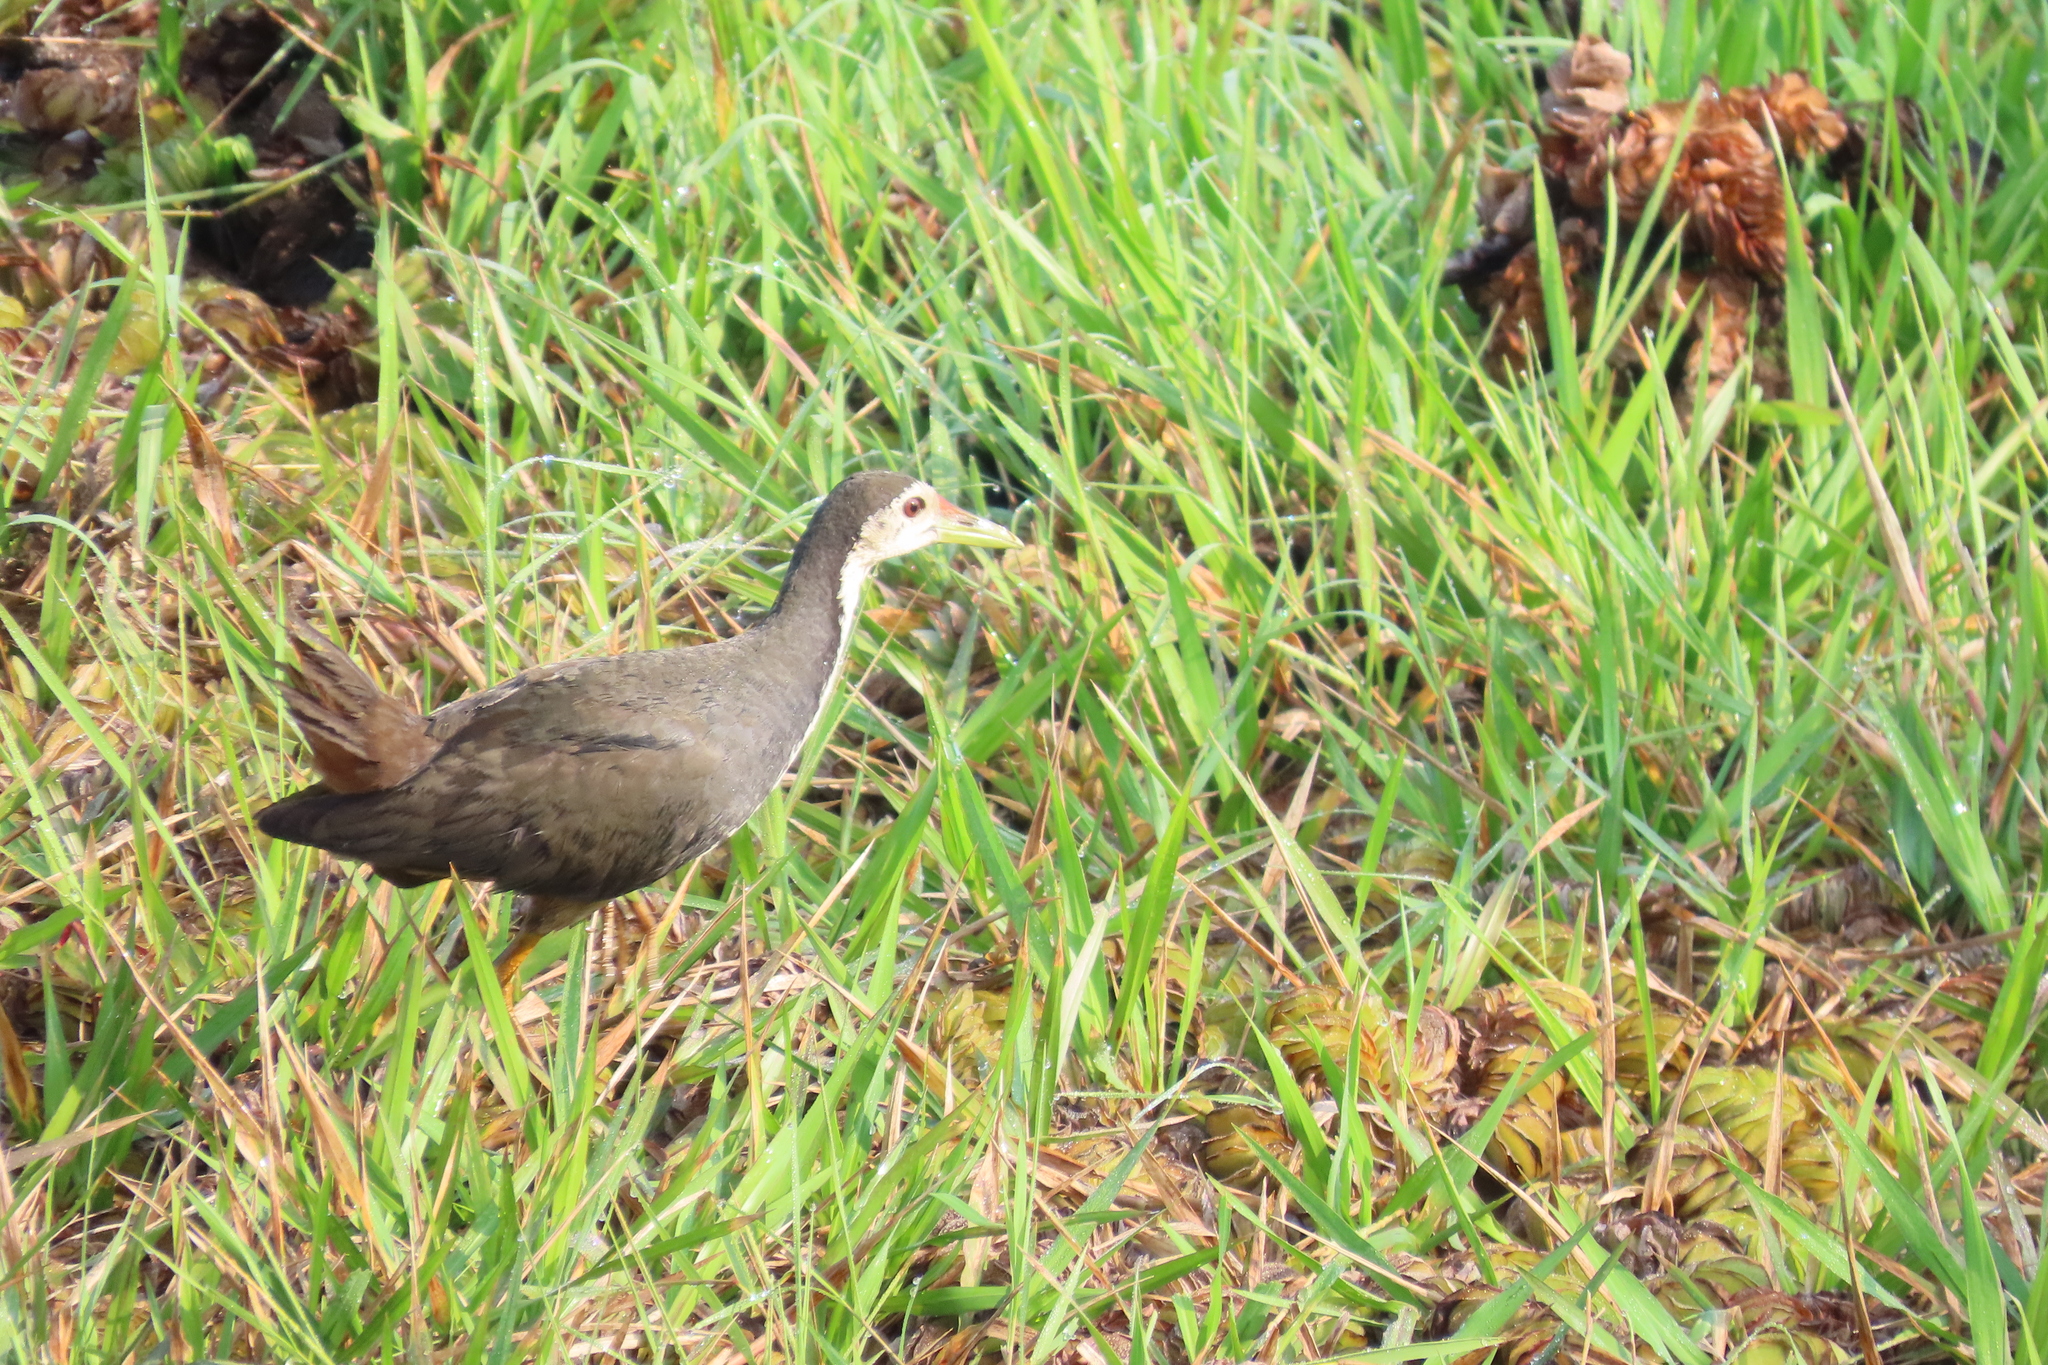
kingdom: Animalia
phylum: Chordata
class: Aves
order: Gruiformes
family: Rallidae
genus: Amaurornis
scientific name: Amaurornis phoenicurus
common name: White-breasted waterhen
